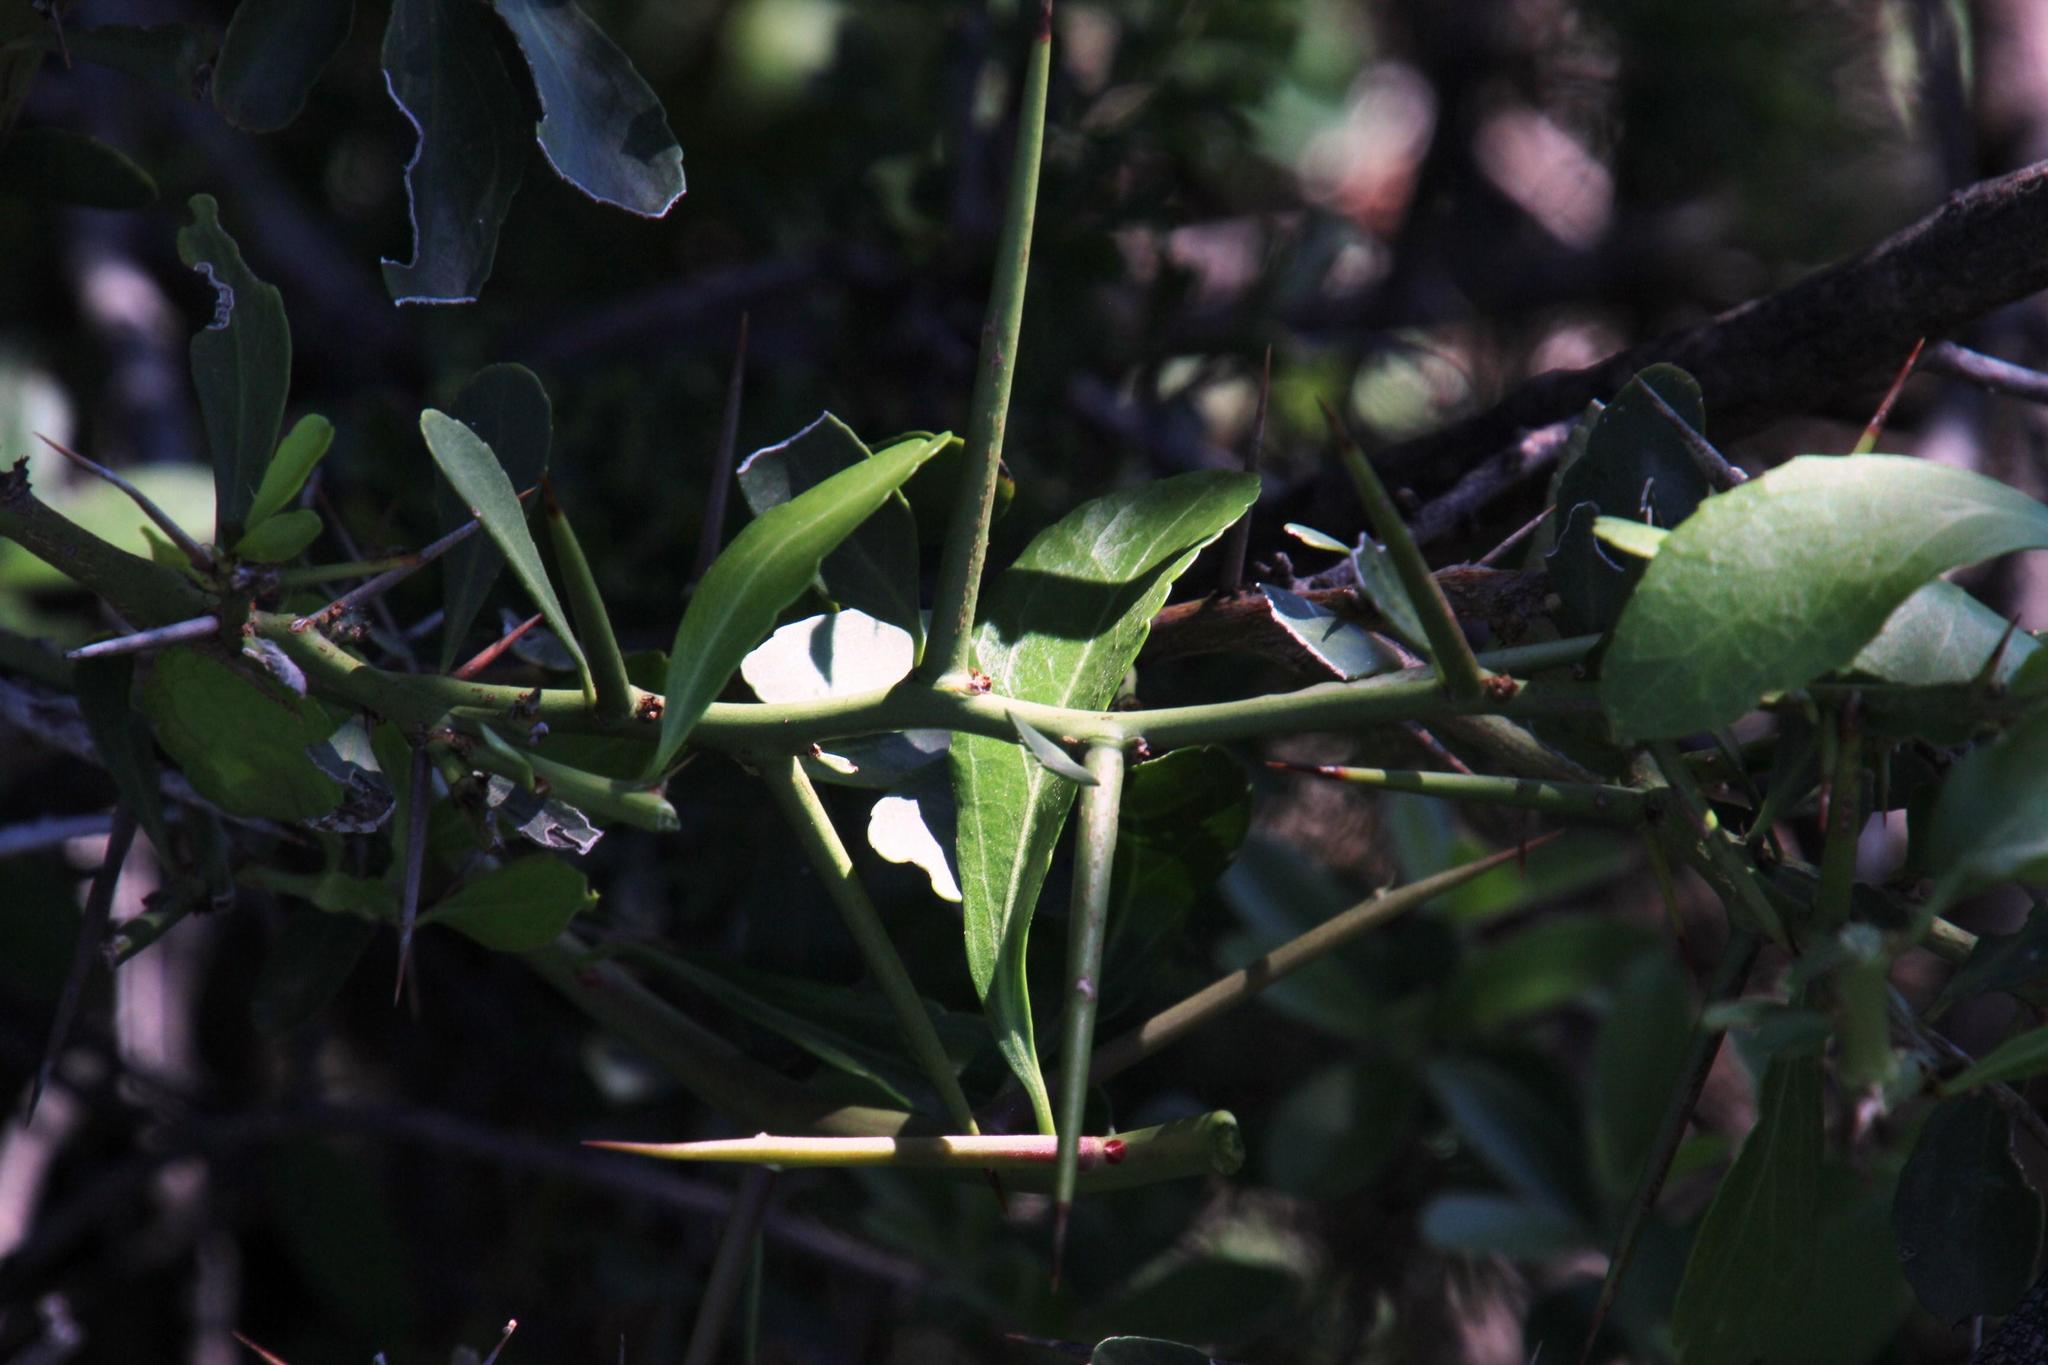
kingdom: Plantae
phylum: Tracheophyta
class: Magnoliopsida
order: Celastrales
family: Celastraceae
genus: Gymnosporia
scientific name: Gymnosporia buxifolia
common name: Common spike-thorn
